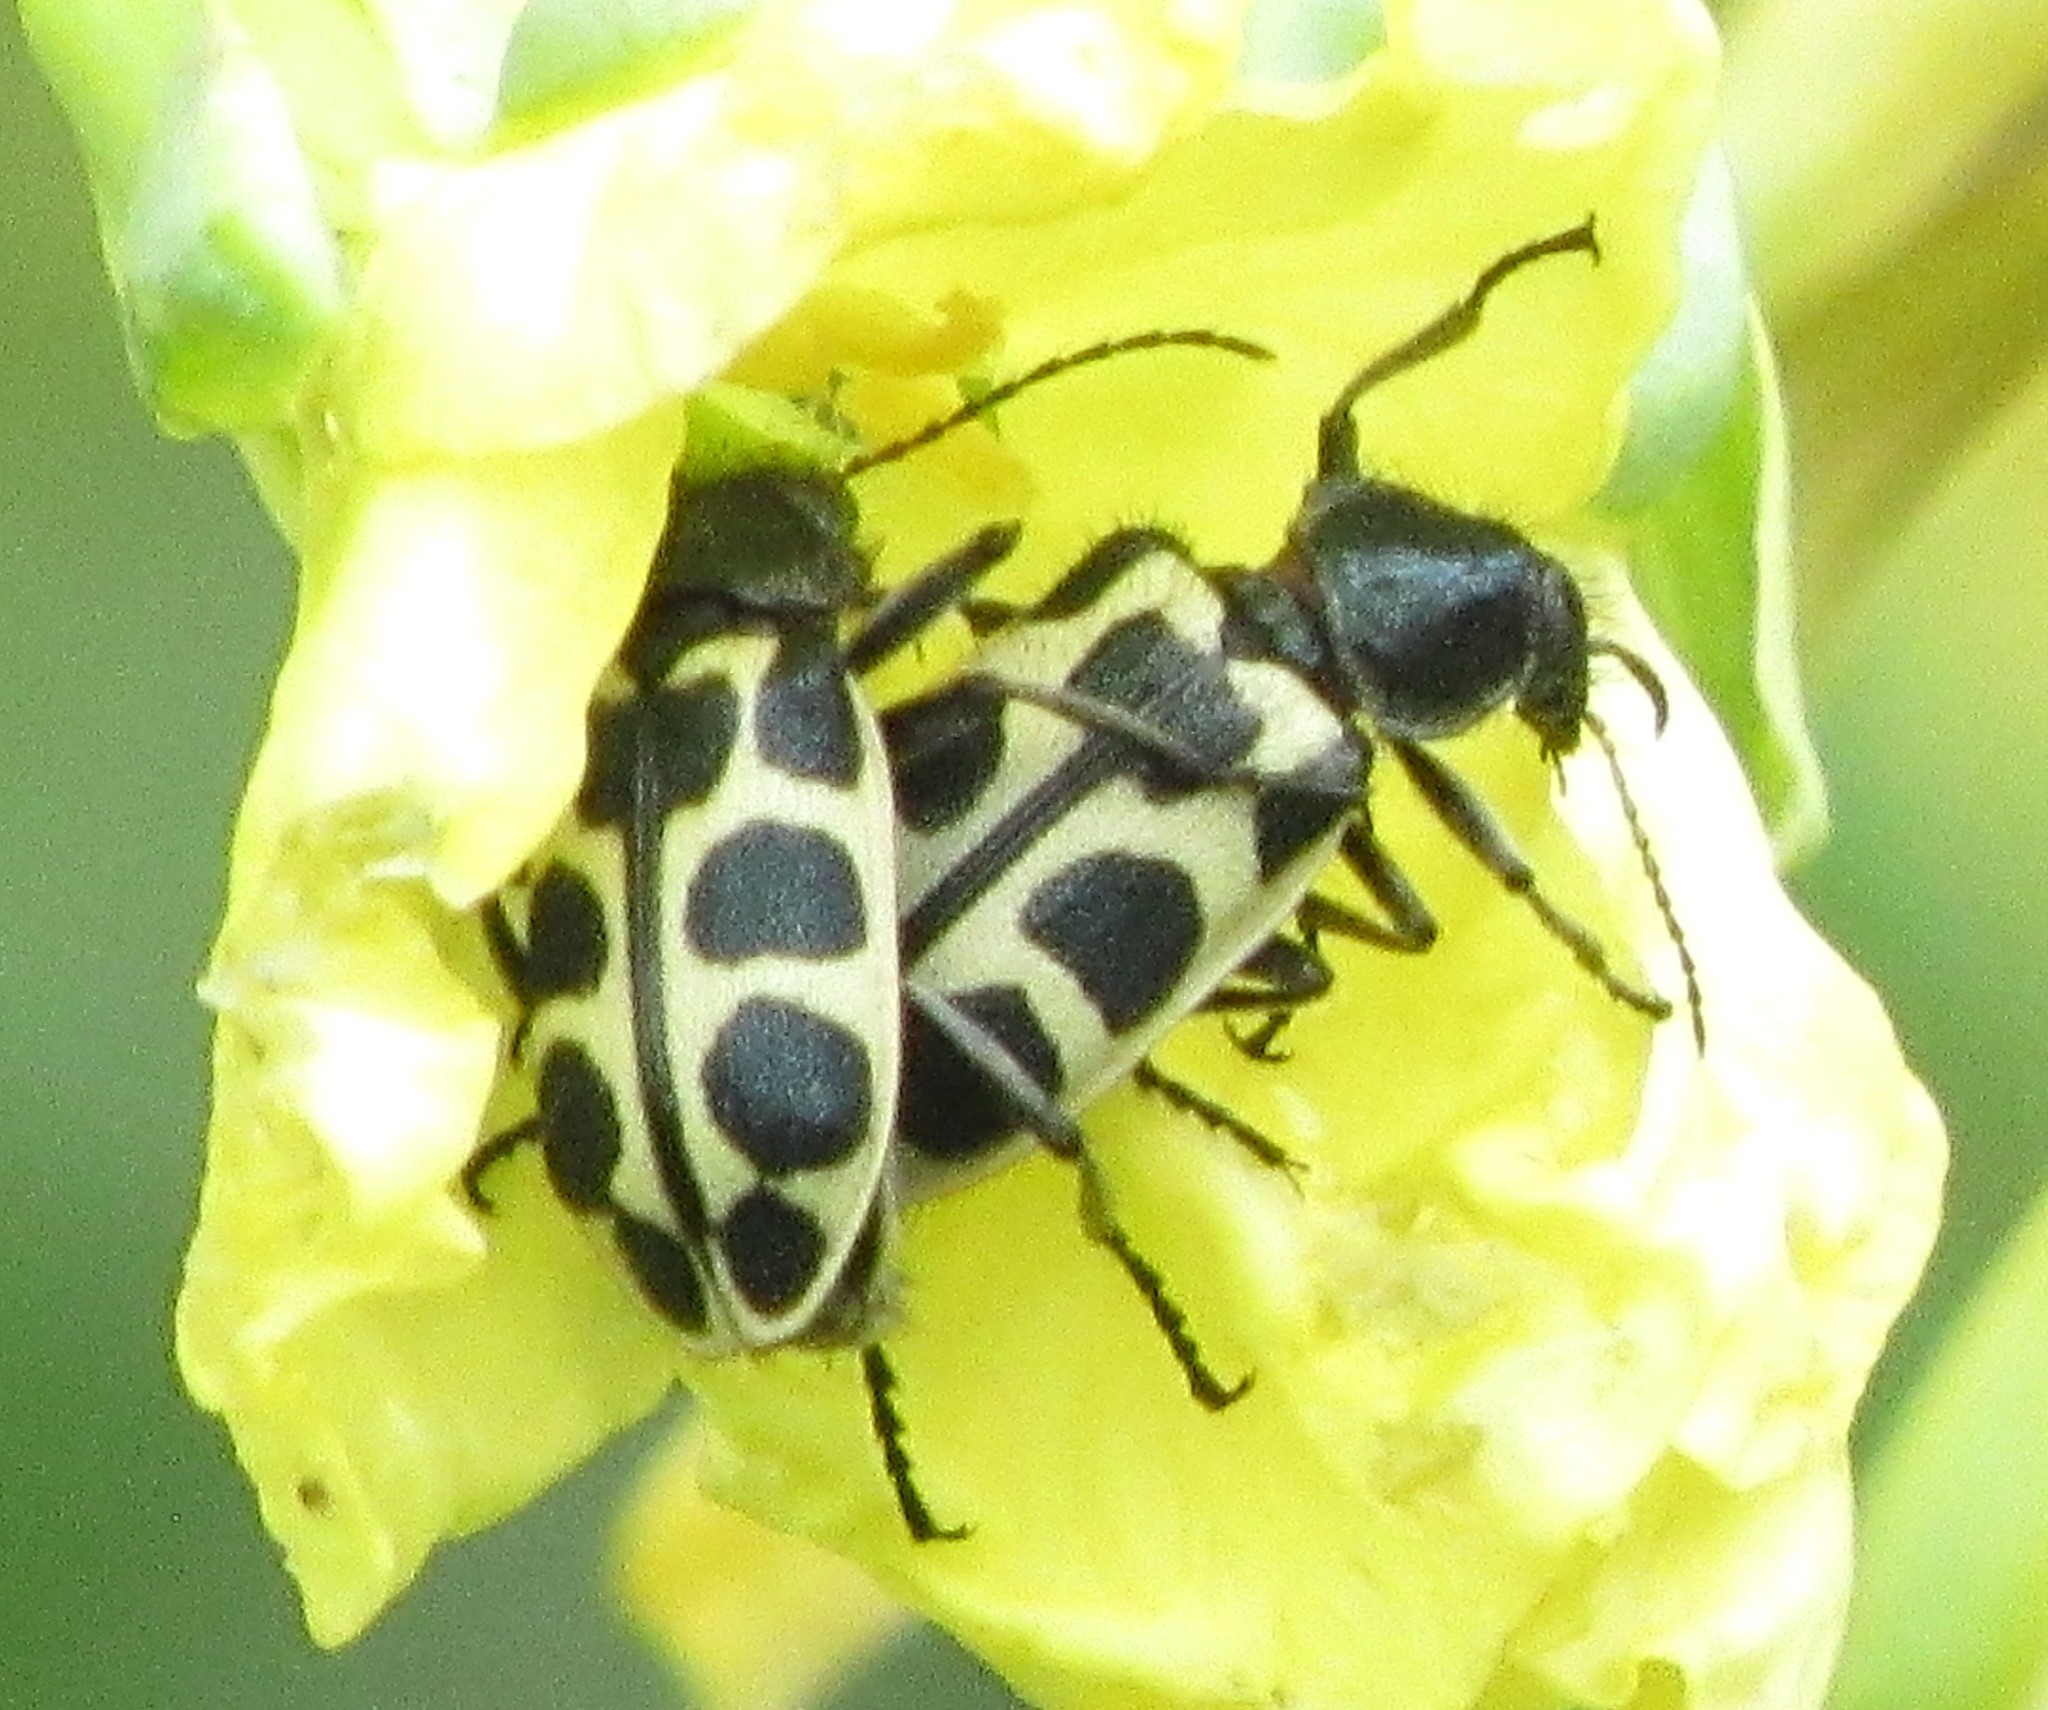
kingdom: Animalia
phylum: Arthropoda
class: Insecta
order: Coleoptera
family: Melyridae
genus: Astylus
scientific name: Astylus
